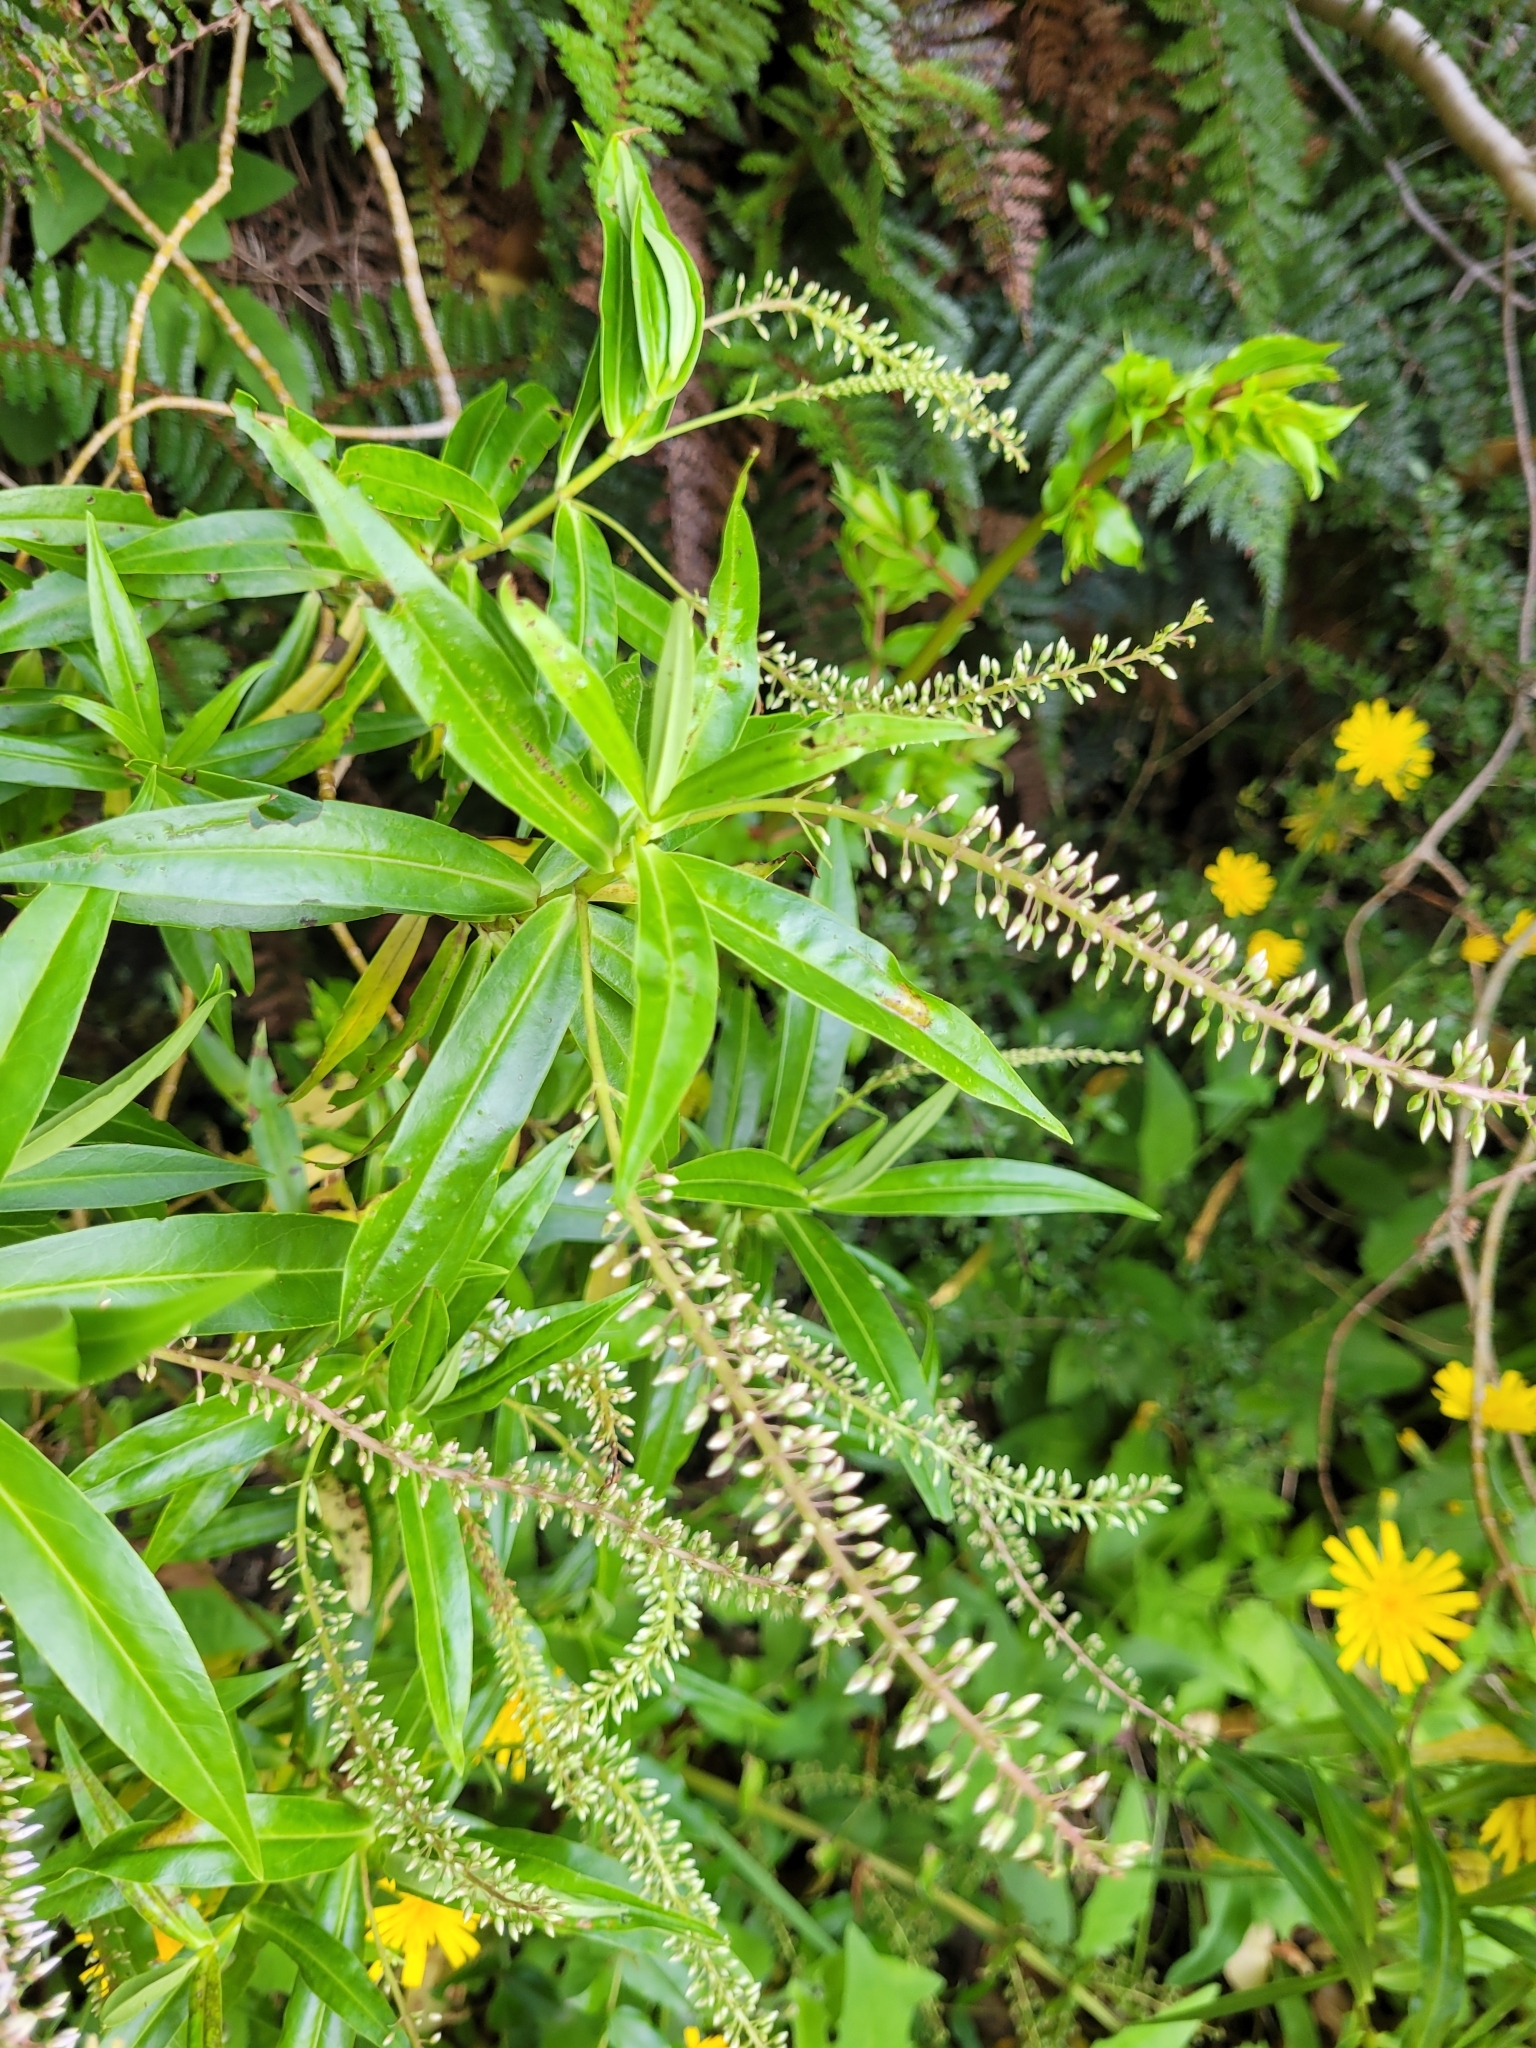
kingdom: Plantae
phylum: Tracheophyta
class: Magnoliopsida
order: Lamiales
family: Plantaginaceae
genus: Veronica
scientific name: Veronica salicifolia
